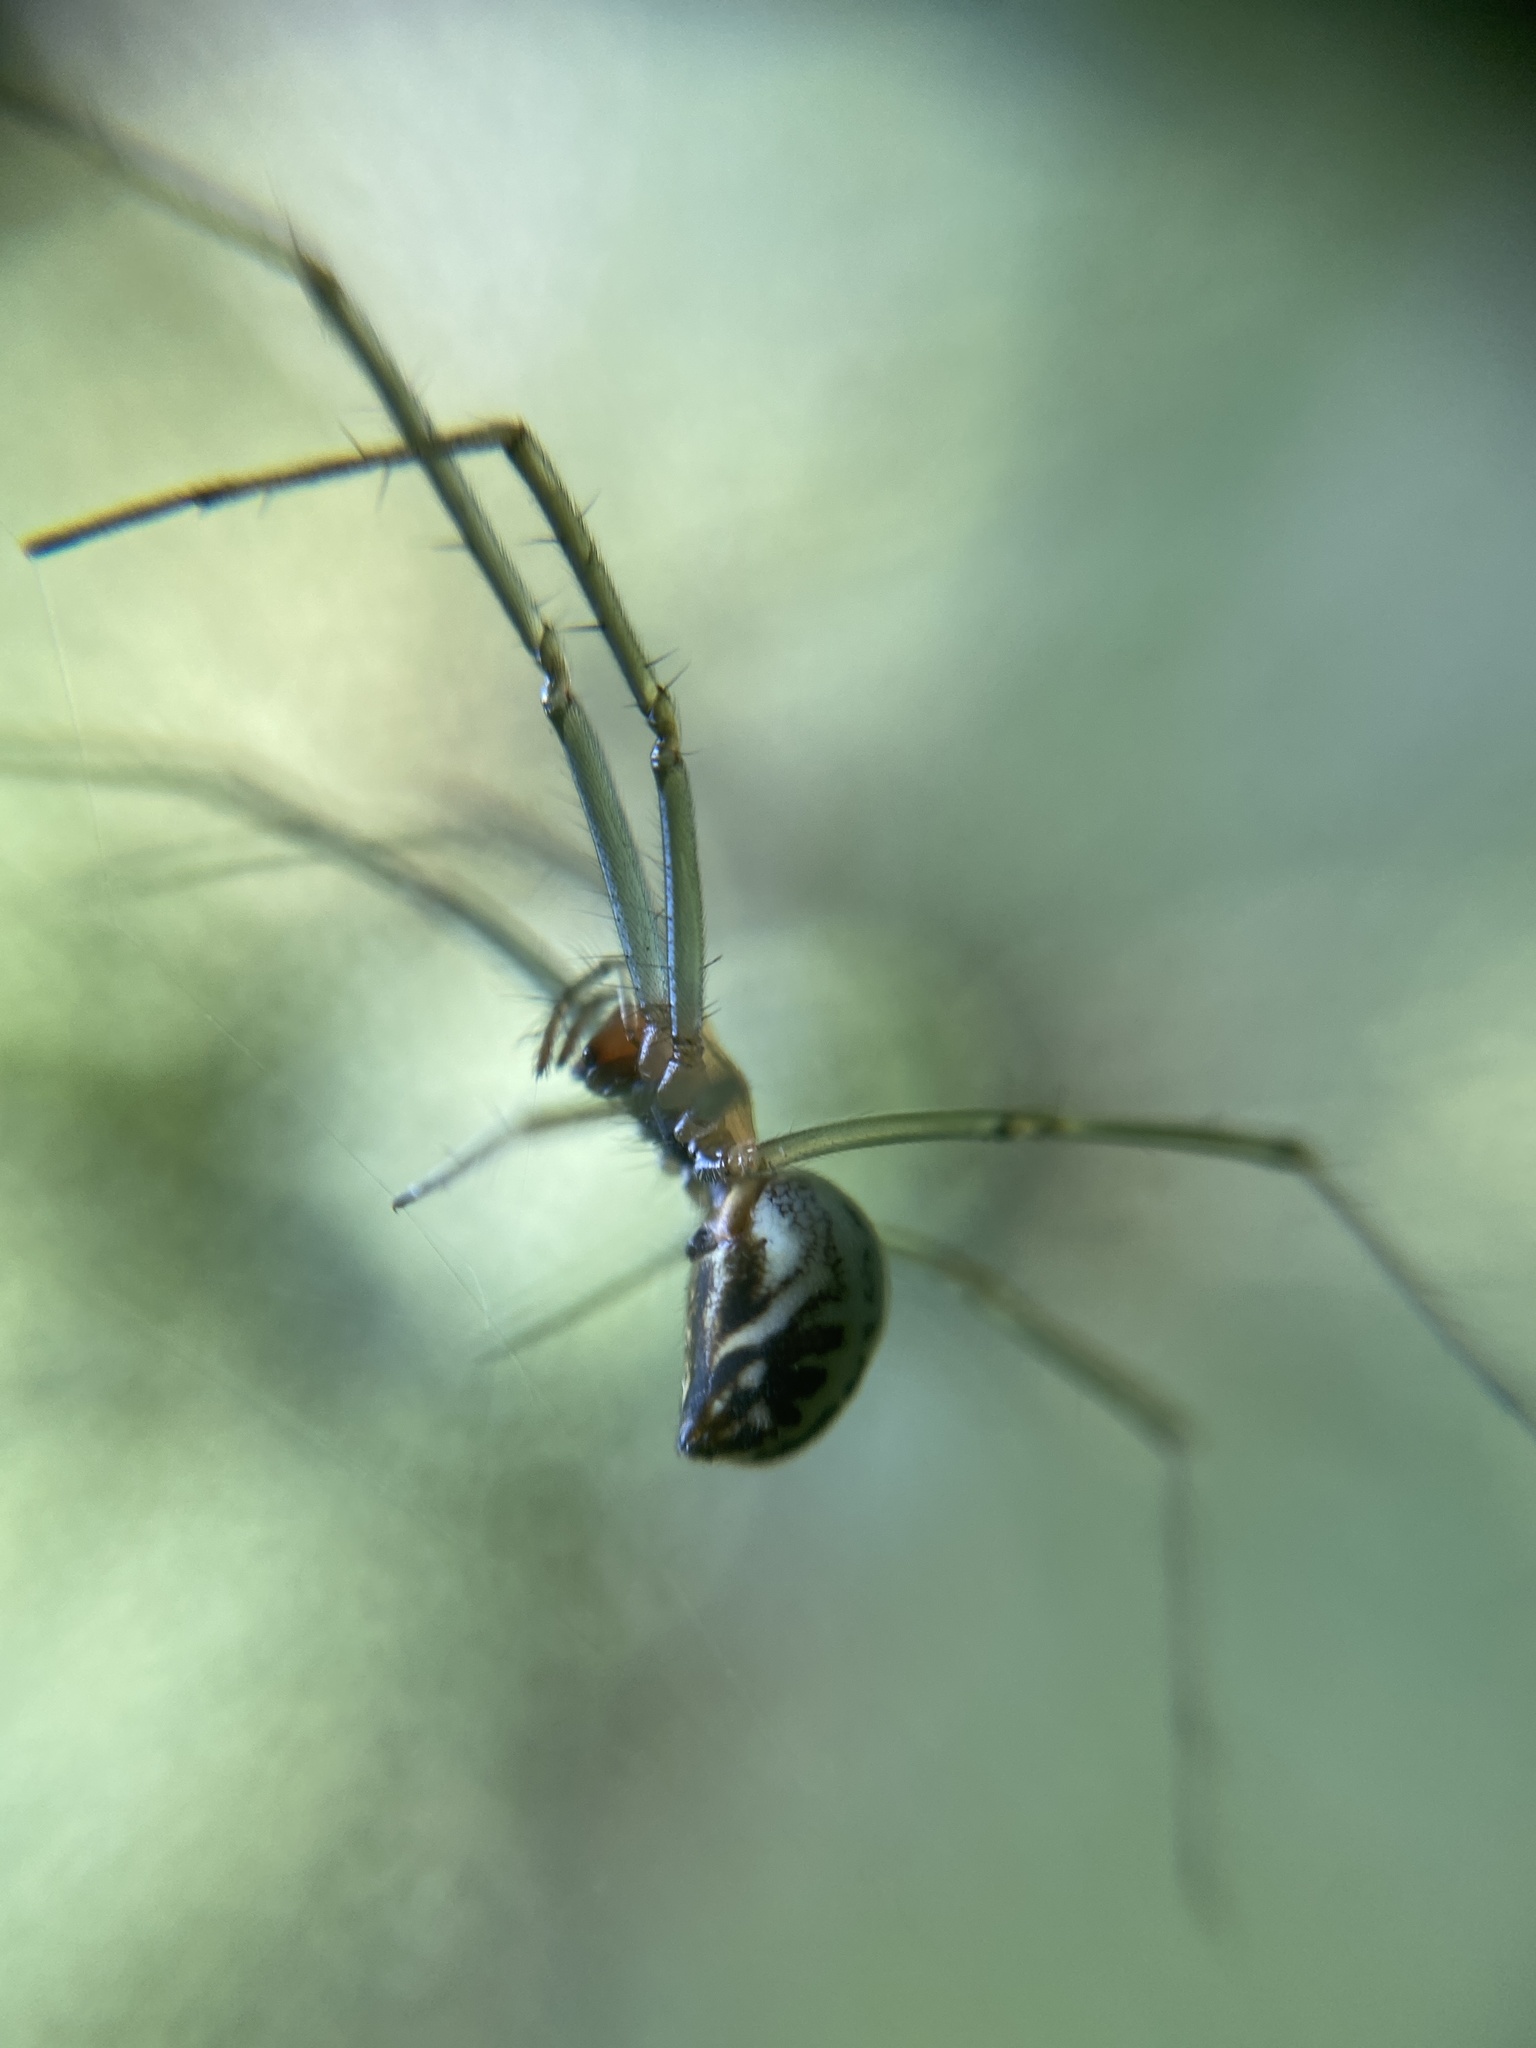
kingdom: Animalia
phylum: Arthropoda
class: Arachnida
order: Araneae
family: Linyphiidae
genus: Neriene
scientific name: Neriene emphana
